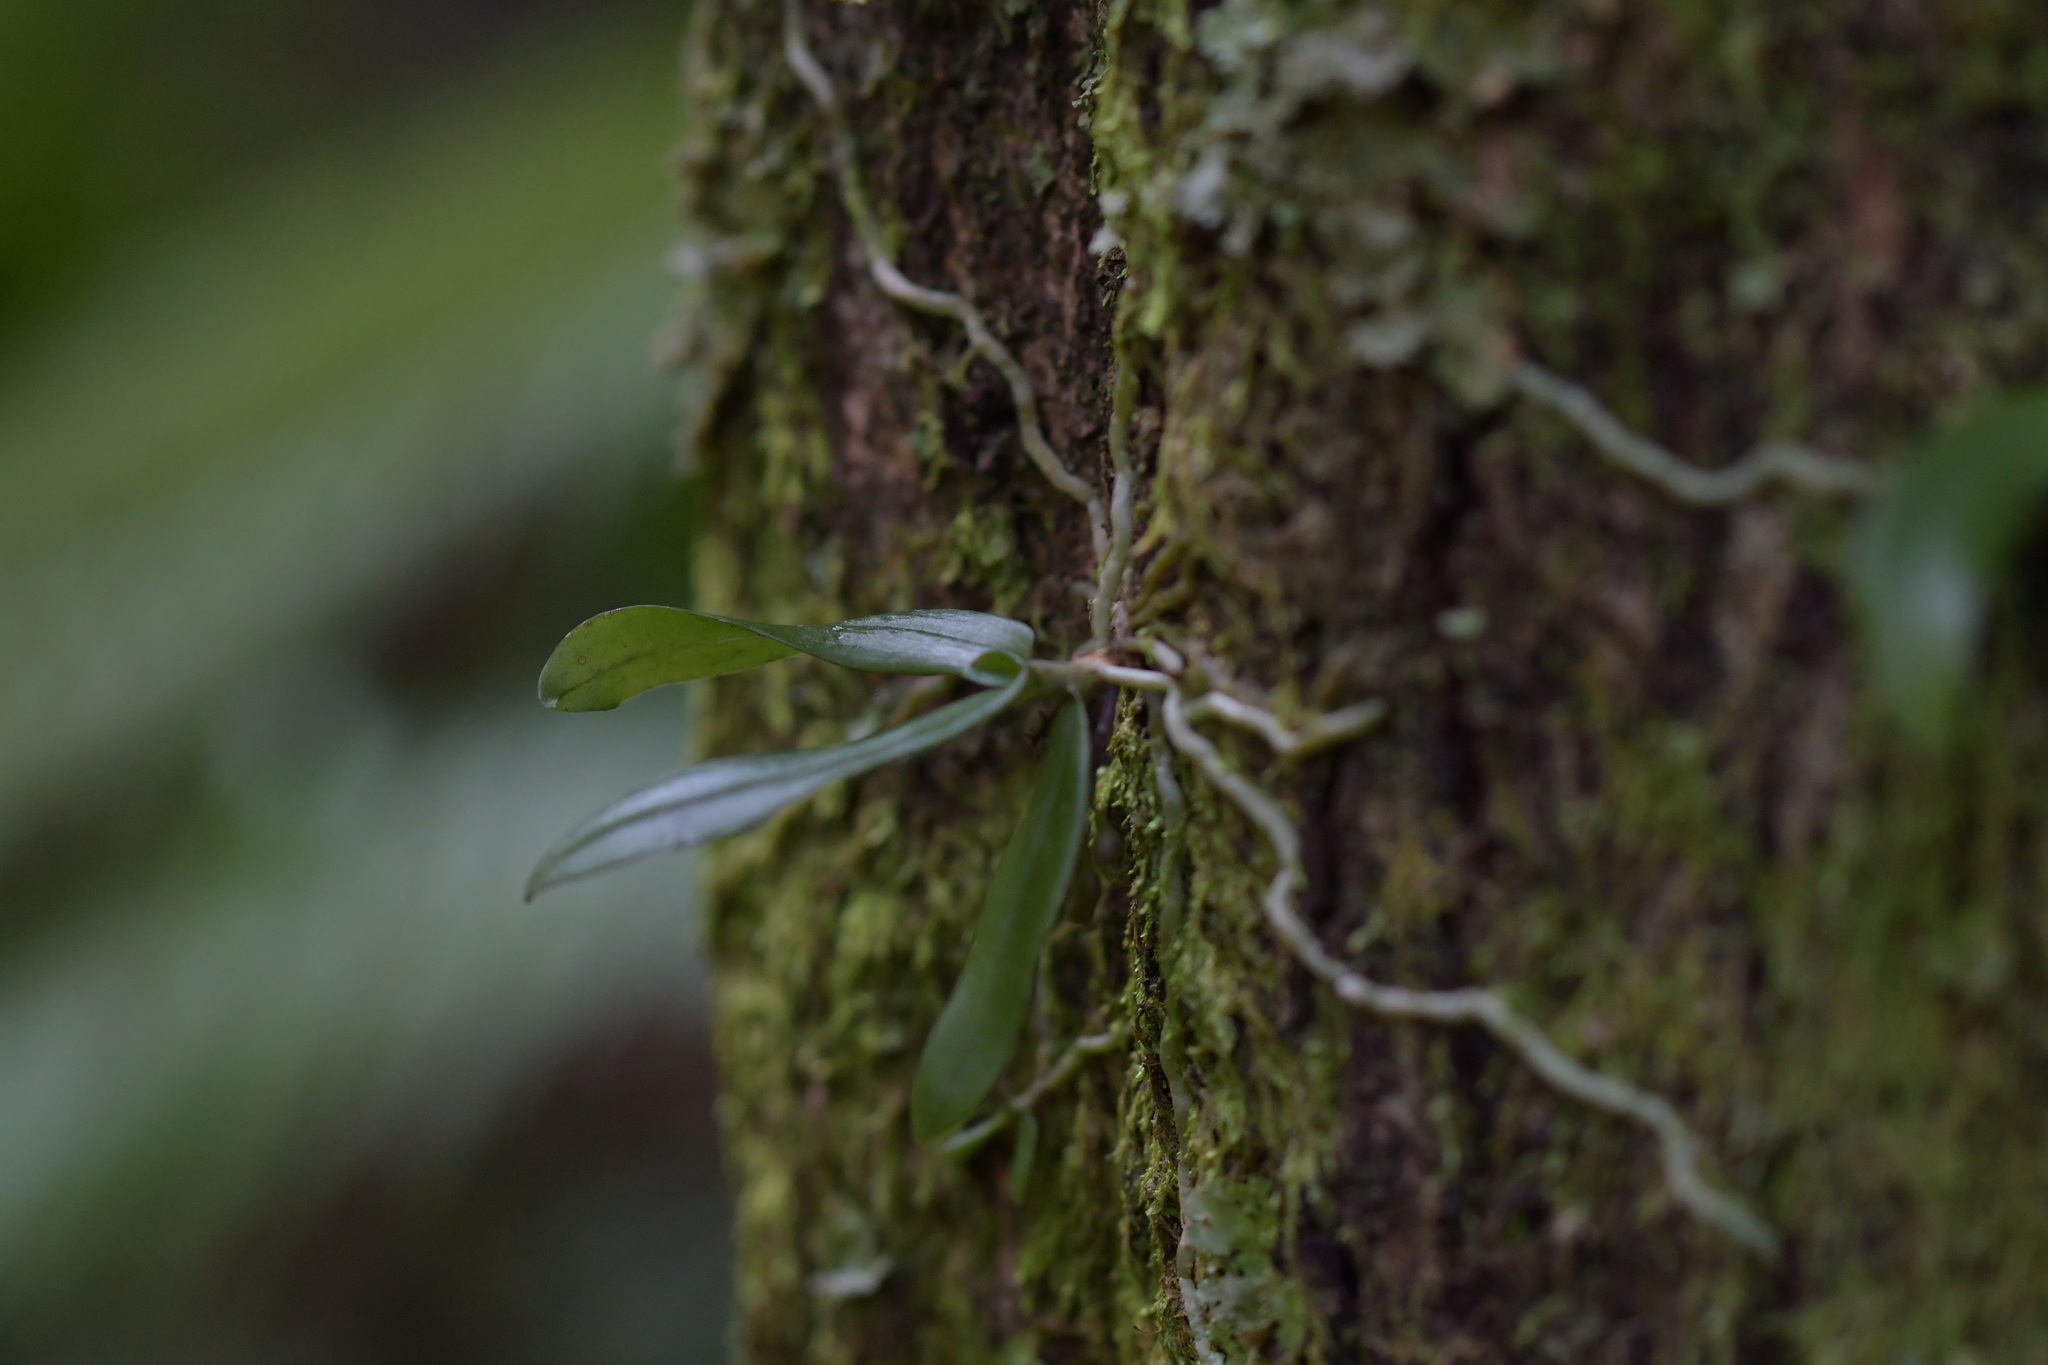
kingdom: Plantae
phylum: Tracheophyta
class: Liliopsida
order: Asparagales
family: Orchidaceae
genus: Drymoanthus
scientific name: Drymoanthus adversus
